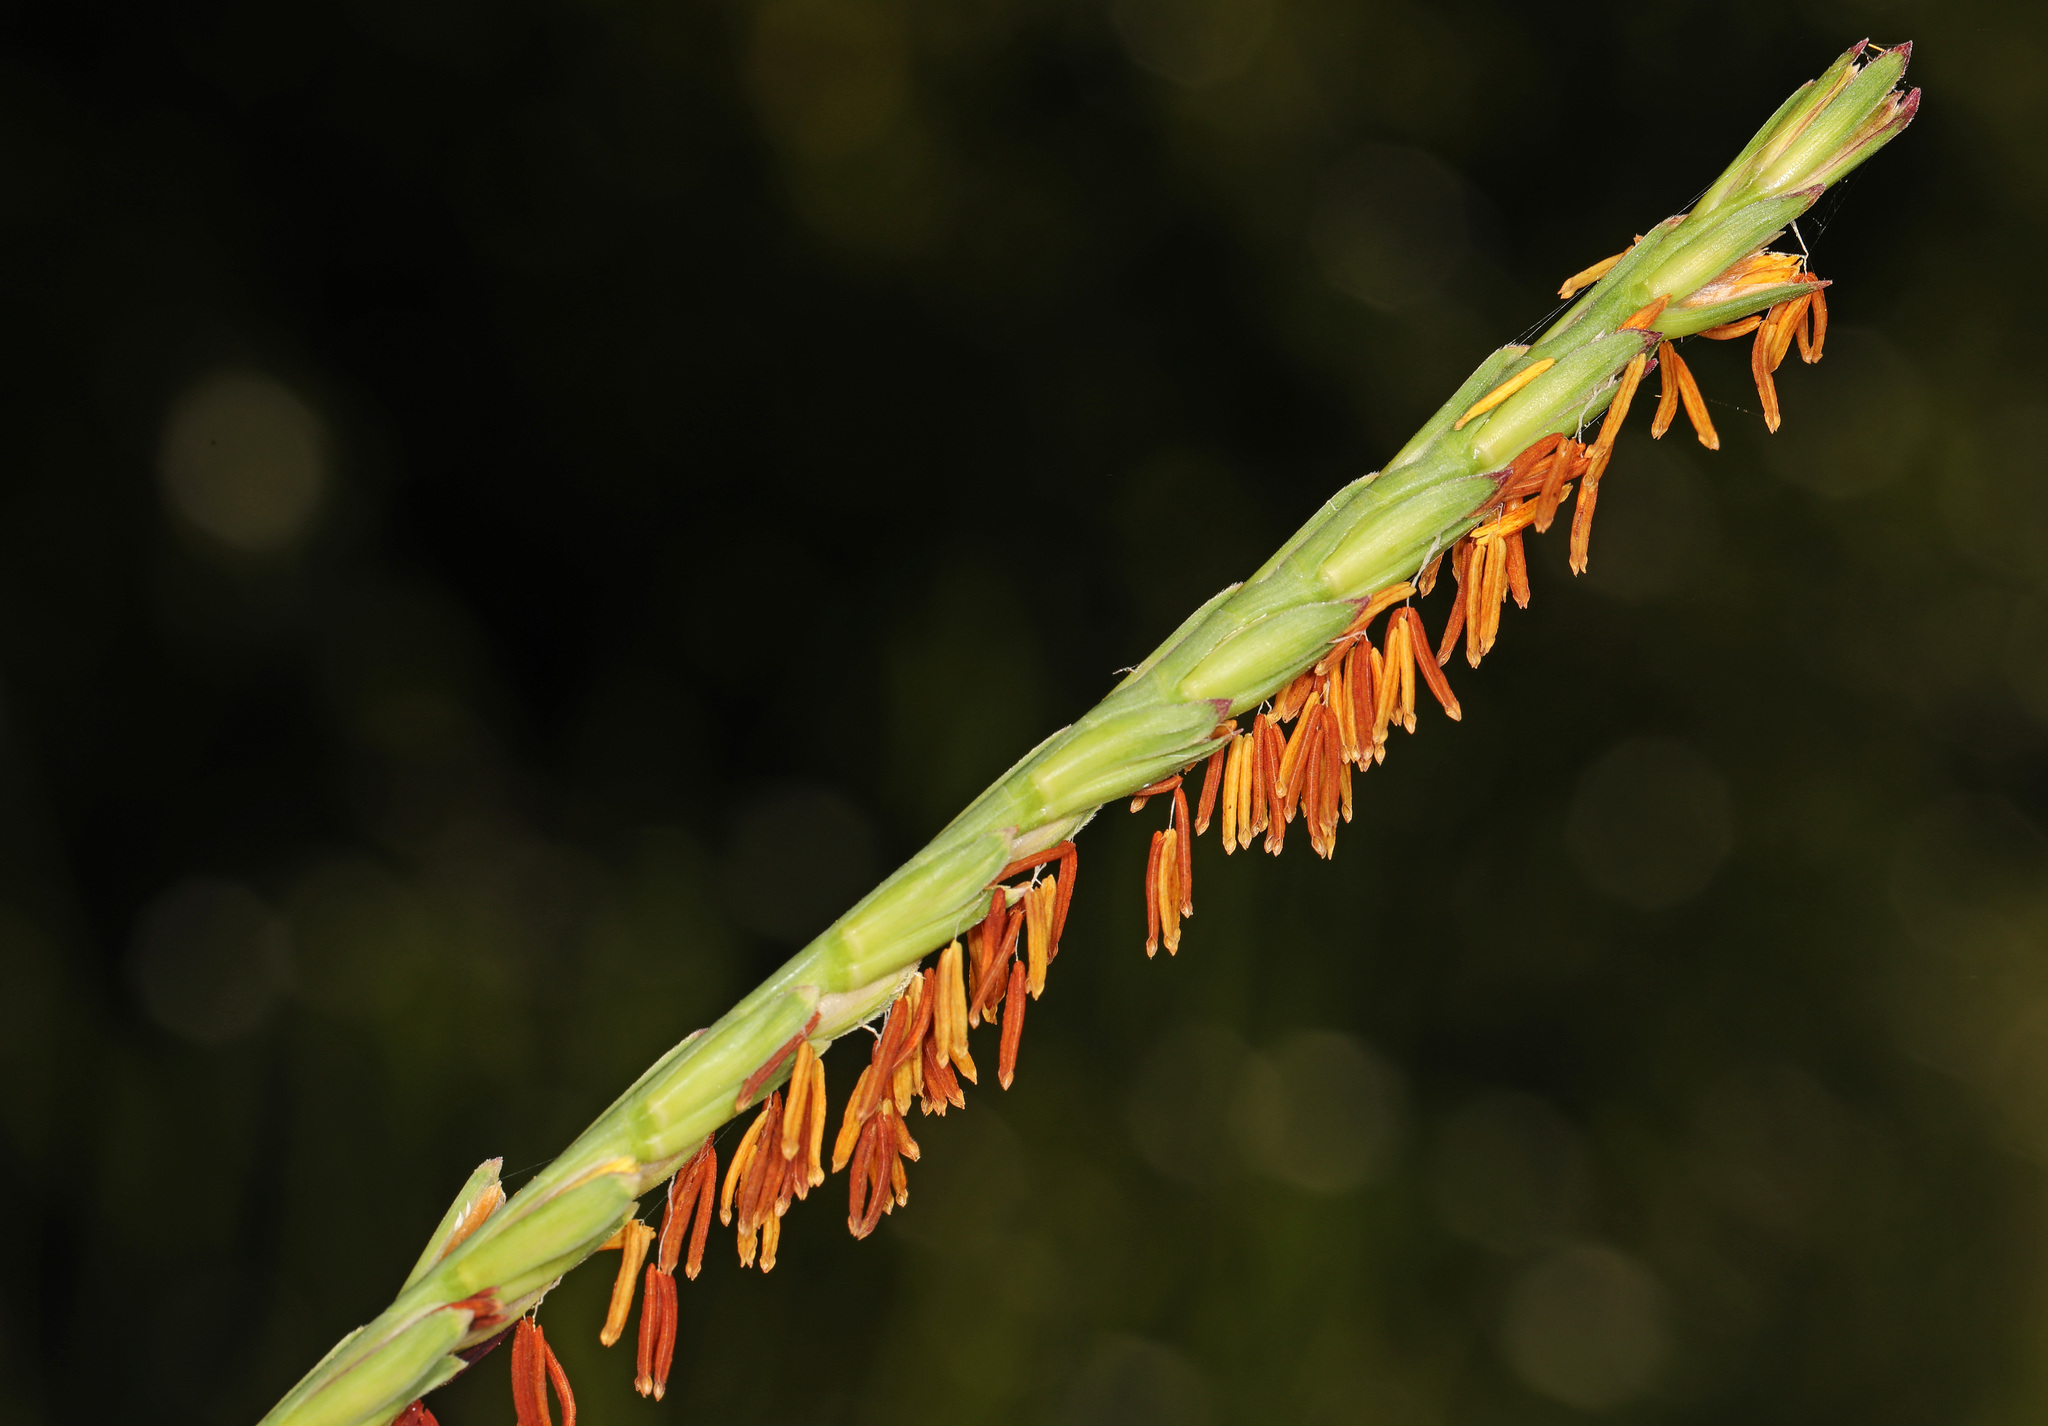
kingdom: Plantae
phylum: Tracheophyta
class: Liliopsida
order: Poales
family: Poaceae
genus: Tripsacum
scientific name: Tripsacum dactyloides
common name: Buffalo-grass
